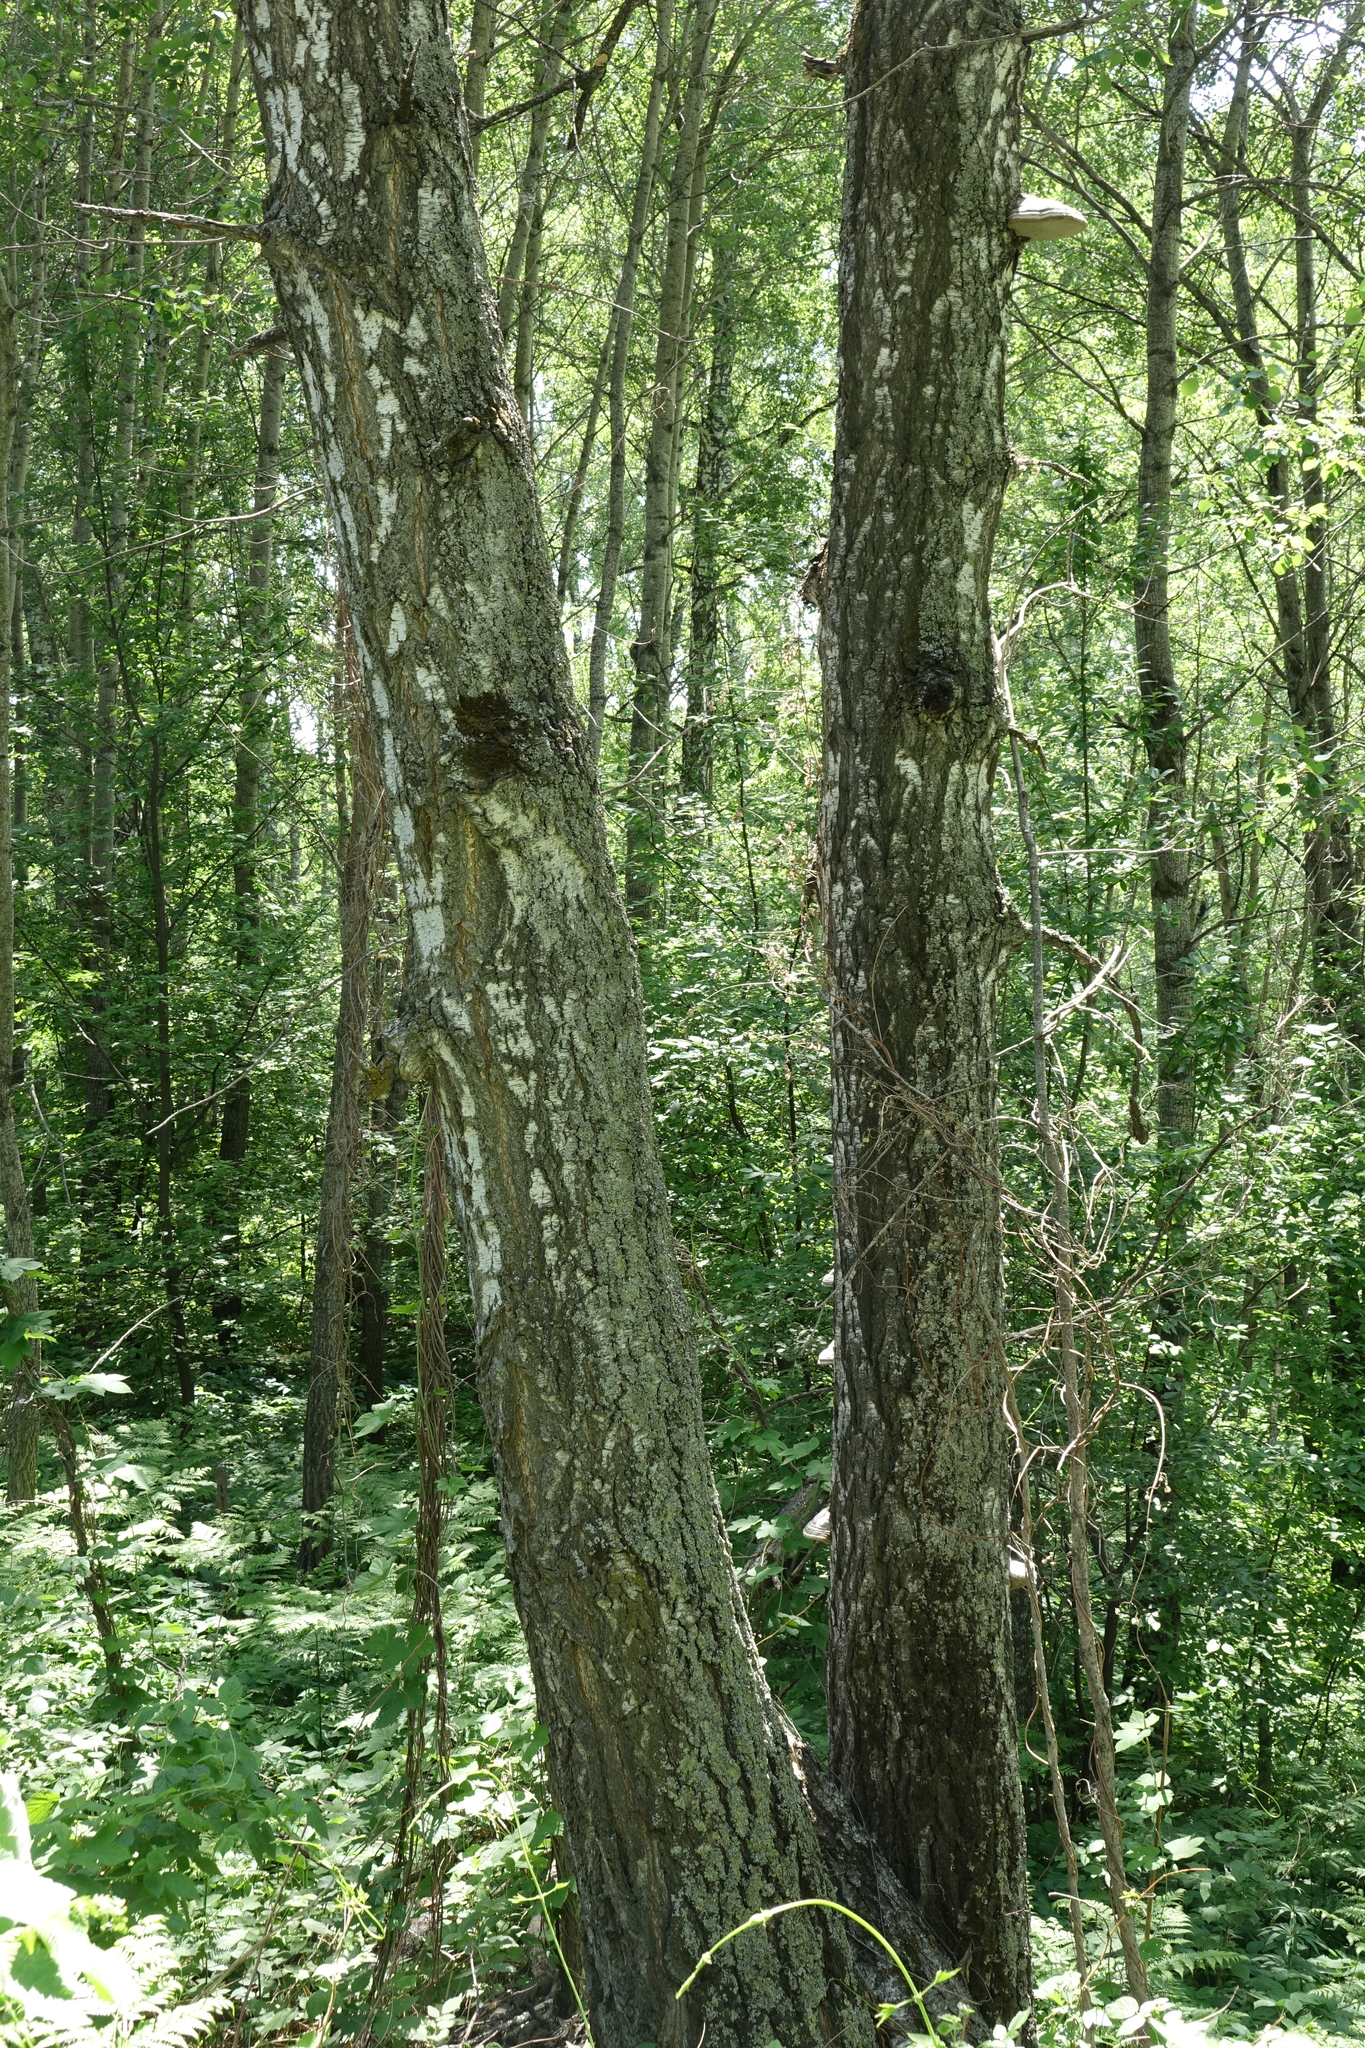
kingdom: Plantae
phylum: Tracheophyta
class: Magnoliopsida
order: Fagales
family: Betulaceae
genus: Betula
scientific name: Betula pendula
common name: Silver birch
